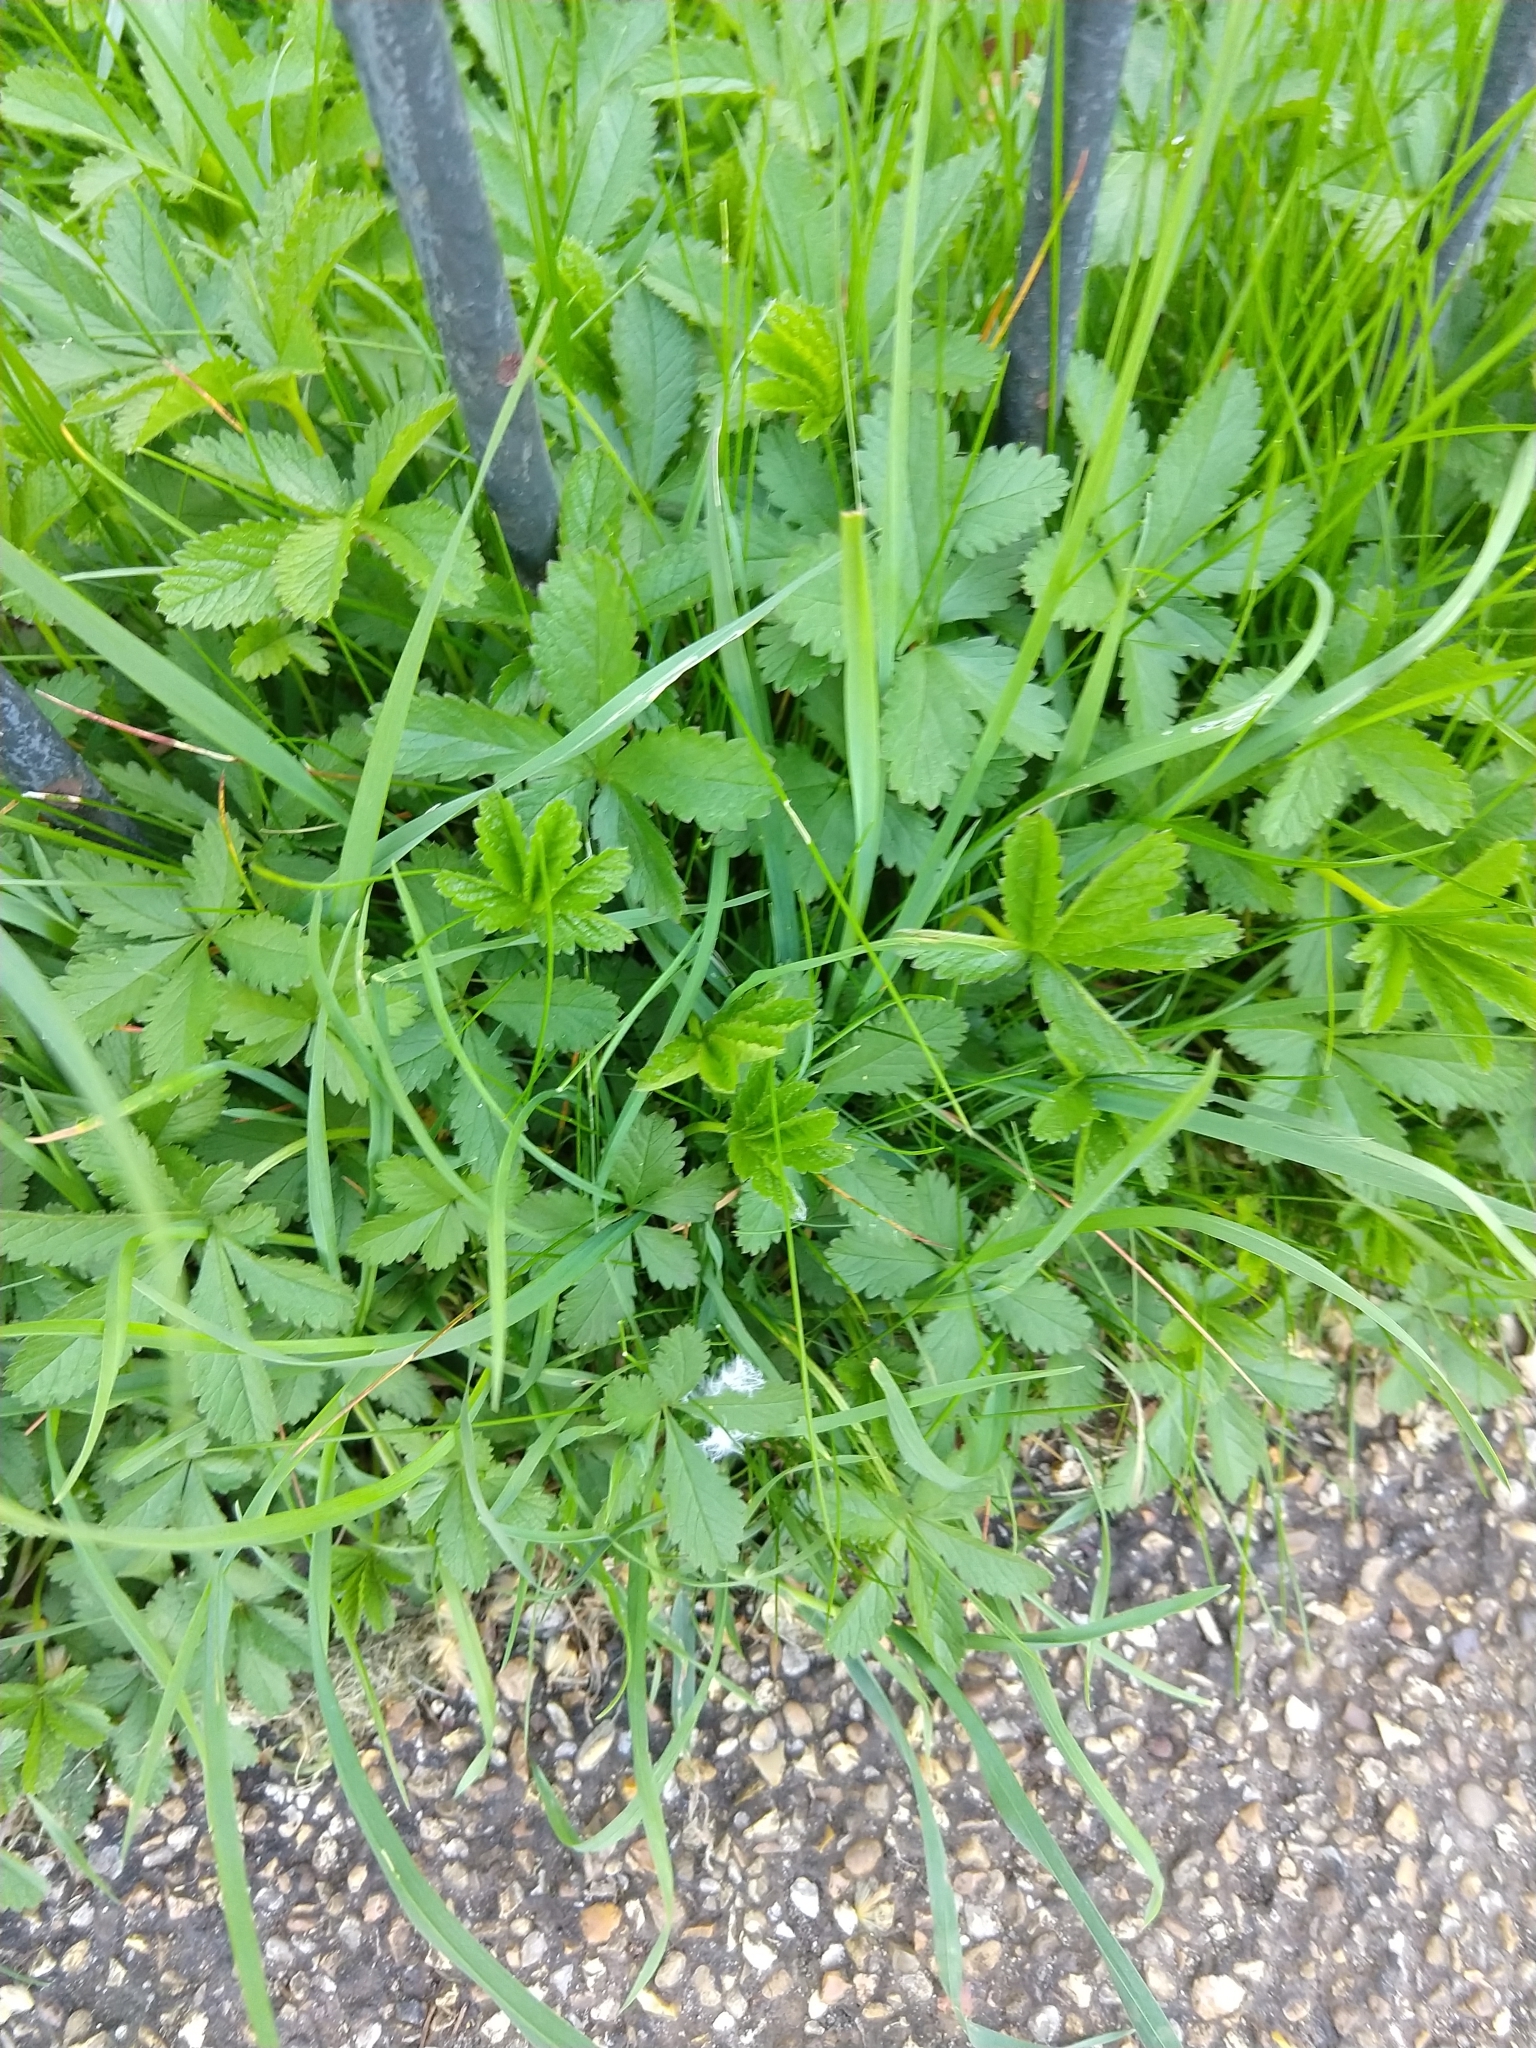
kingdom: Plantae
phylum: Tracheophyta
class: Magnoliopsida
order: Rosales
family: Rosaceae
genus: Potentilla
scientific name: Potentilla reptans
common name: Creeping cinquefoil
